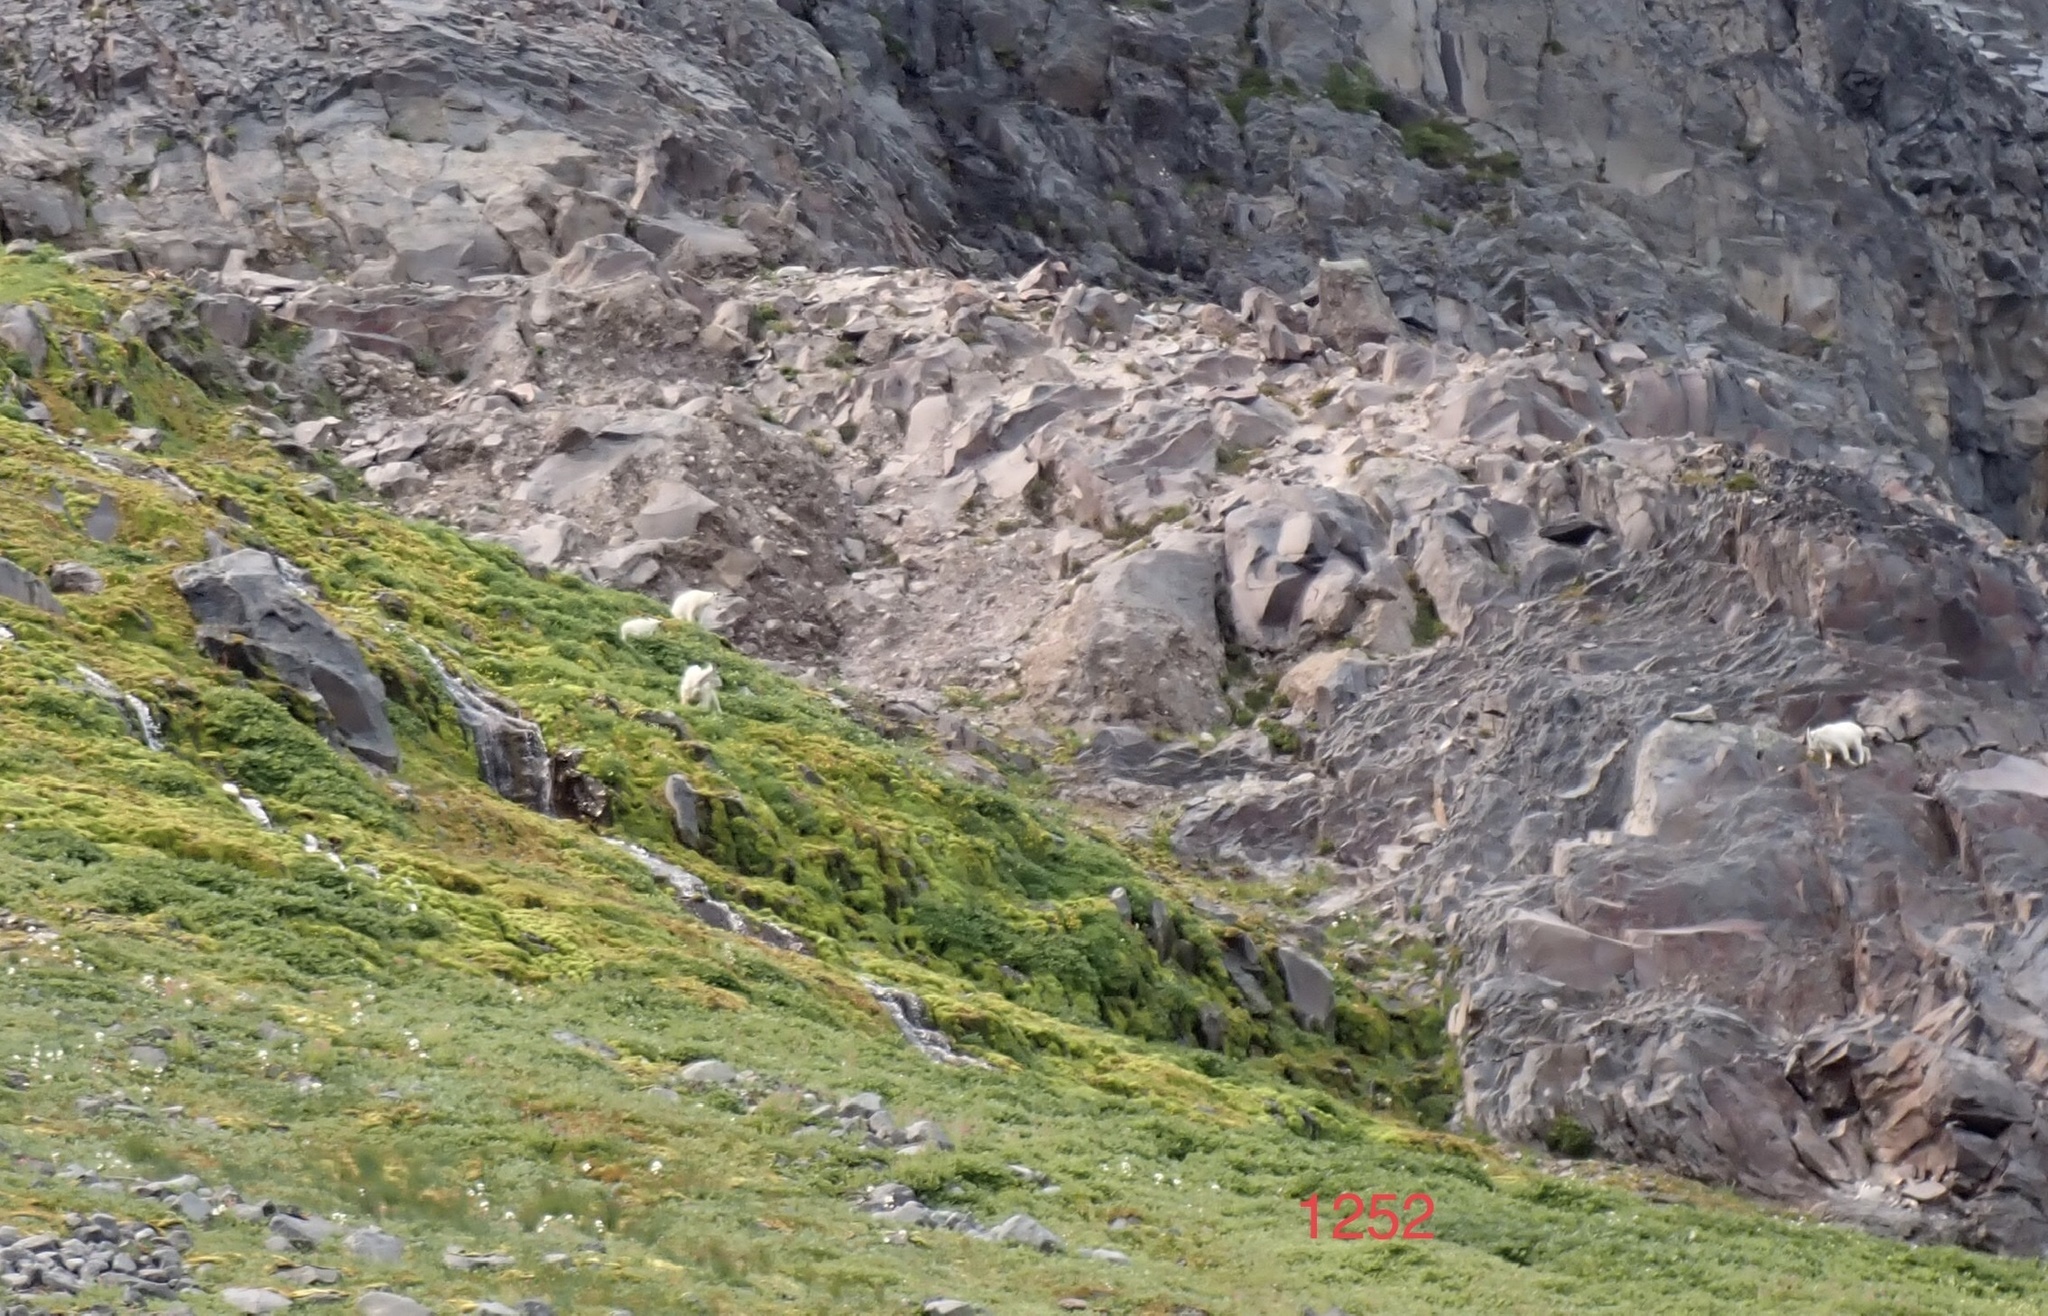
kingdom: Animalia
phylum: Chordata
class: Mammalia
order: Artiodactyla
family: Bovidae
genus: Oreamnos
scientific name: Oreamnos americanus
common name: Mountain goat
